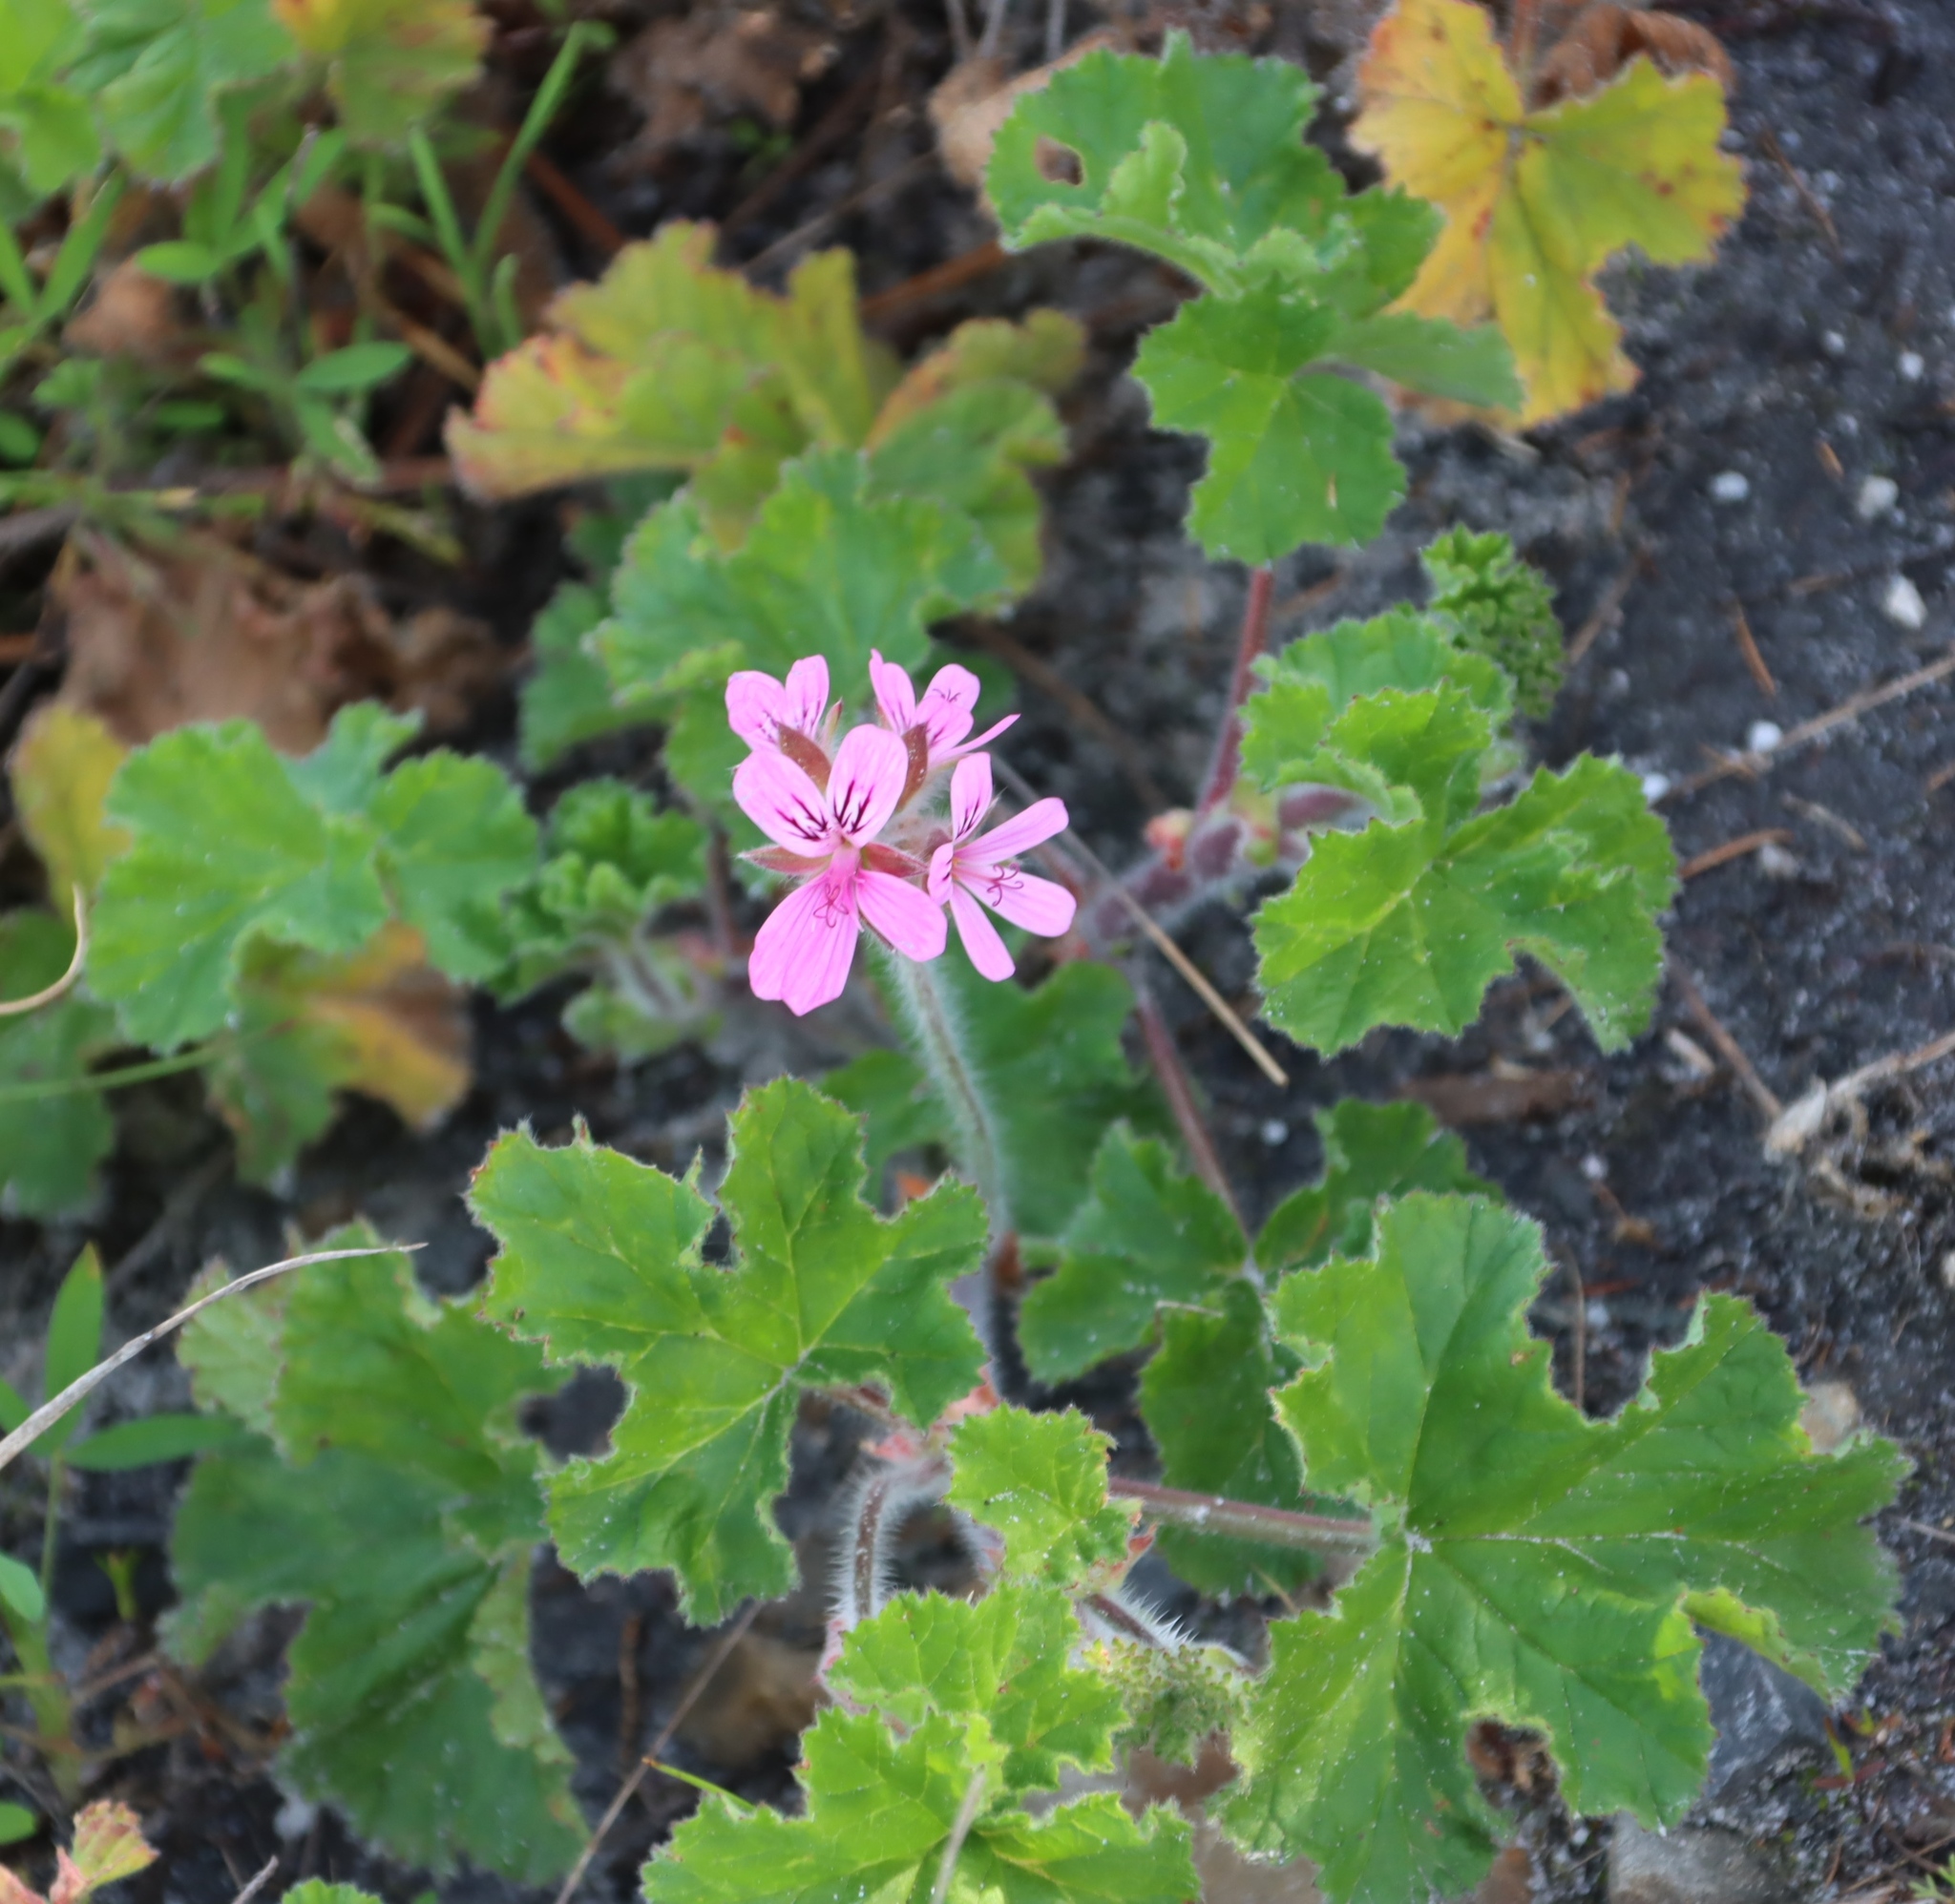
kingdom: Plantae
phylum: Tracheophyta
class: Magnoliopsida
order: Geraniales
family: Geraniaceae
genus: Pelargonium
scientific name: Pelargonium capitatum
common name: Rose scented geranium
